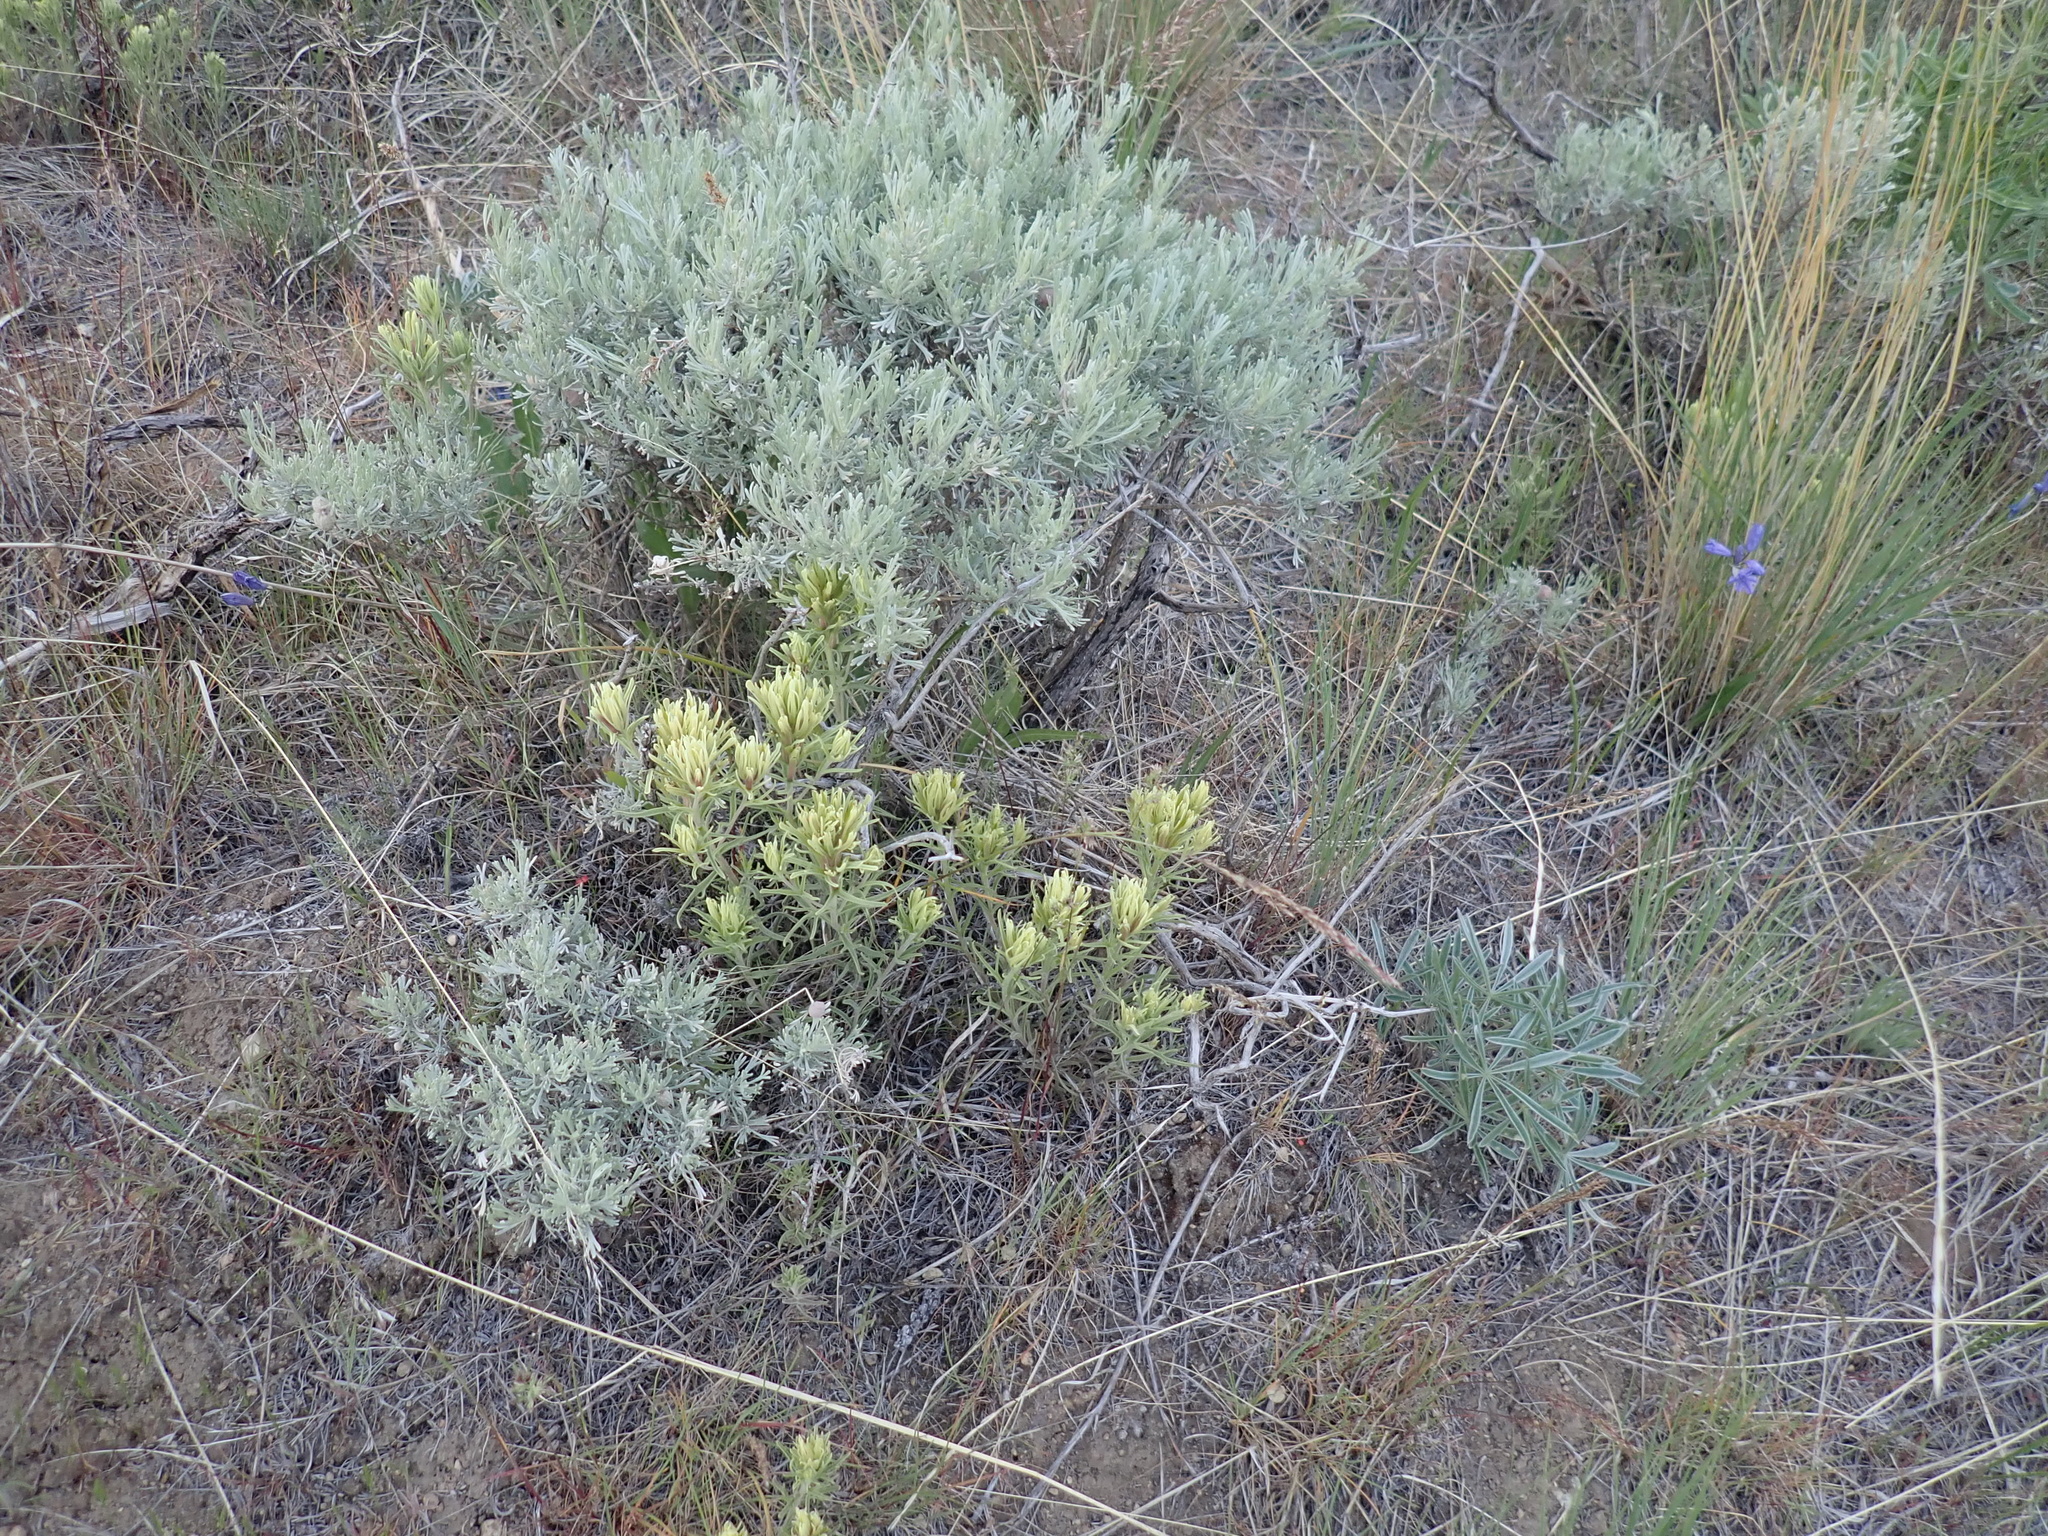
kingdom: Plantae
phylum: Tracheophyta
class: Magnoliopsida
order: Lamiales
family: Orobanchaceae
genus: Castilleja
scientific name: Castilleja thompsonii
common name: Thompson's paintbrush
